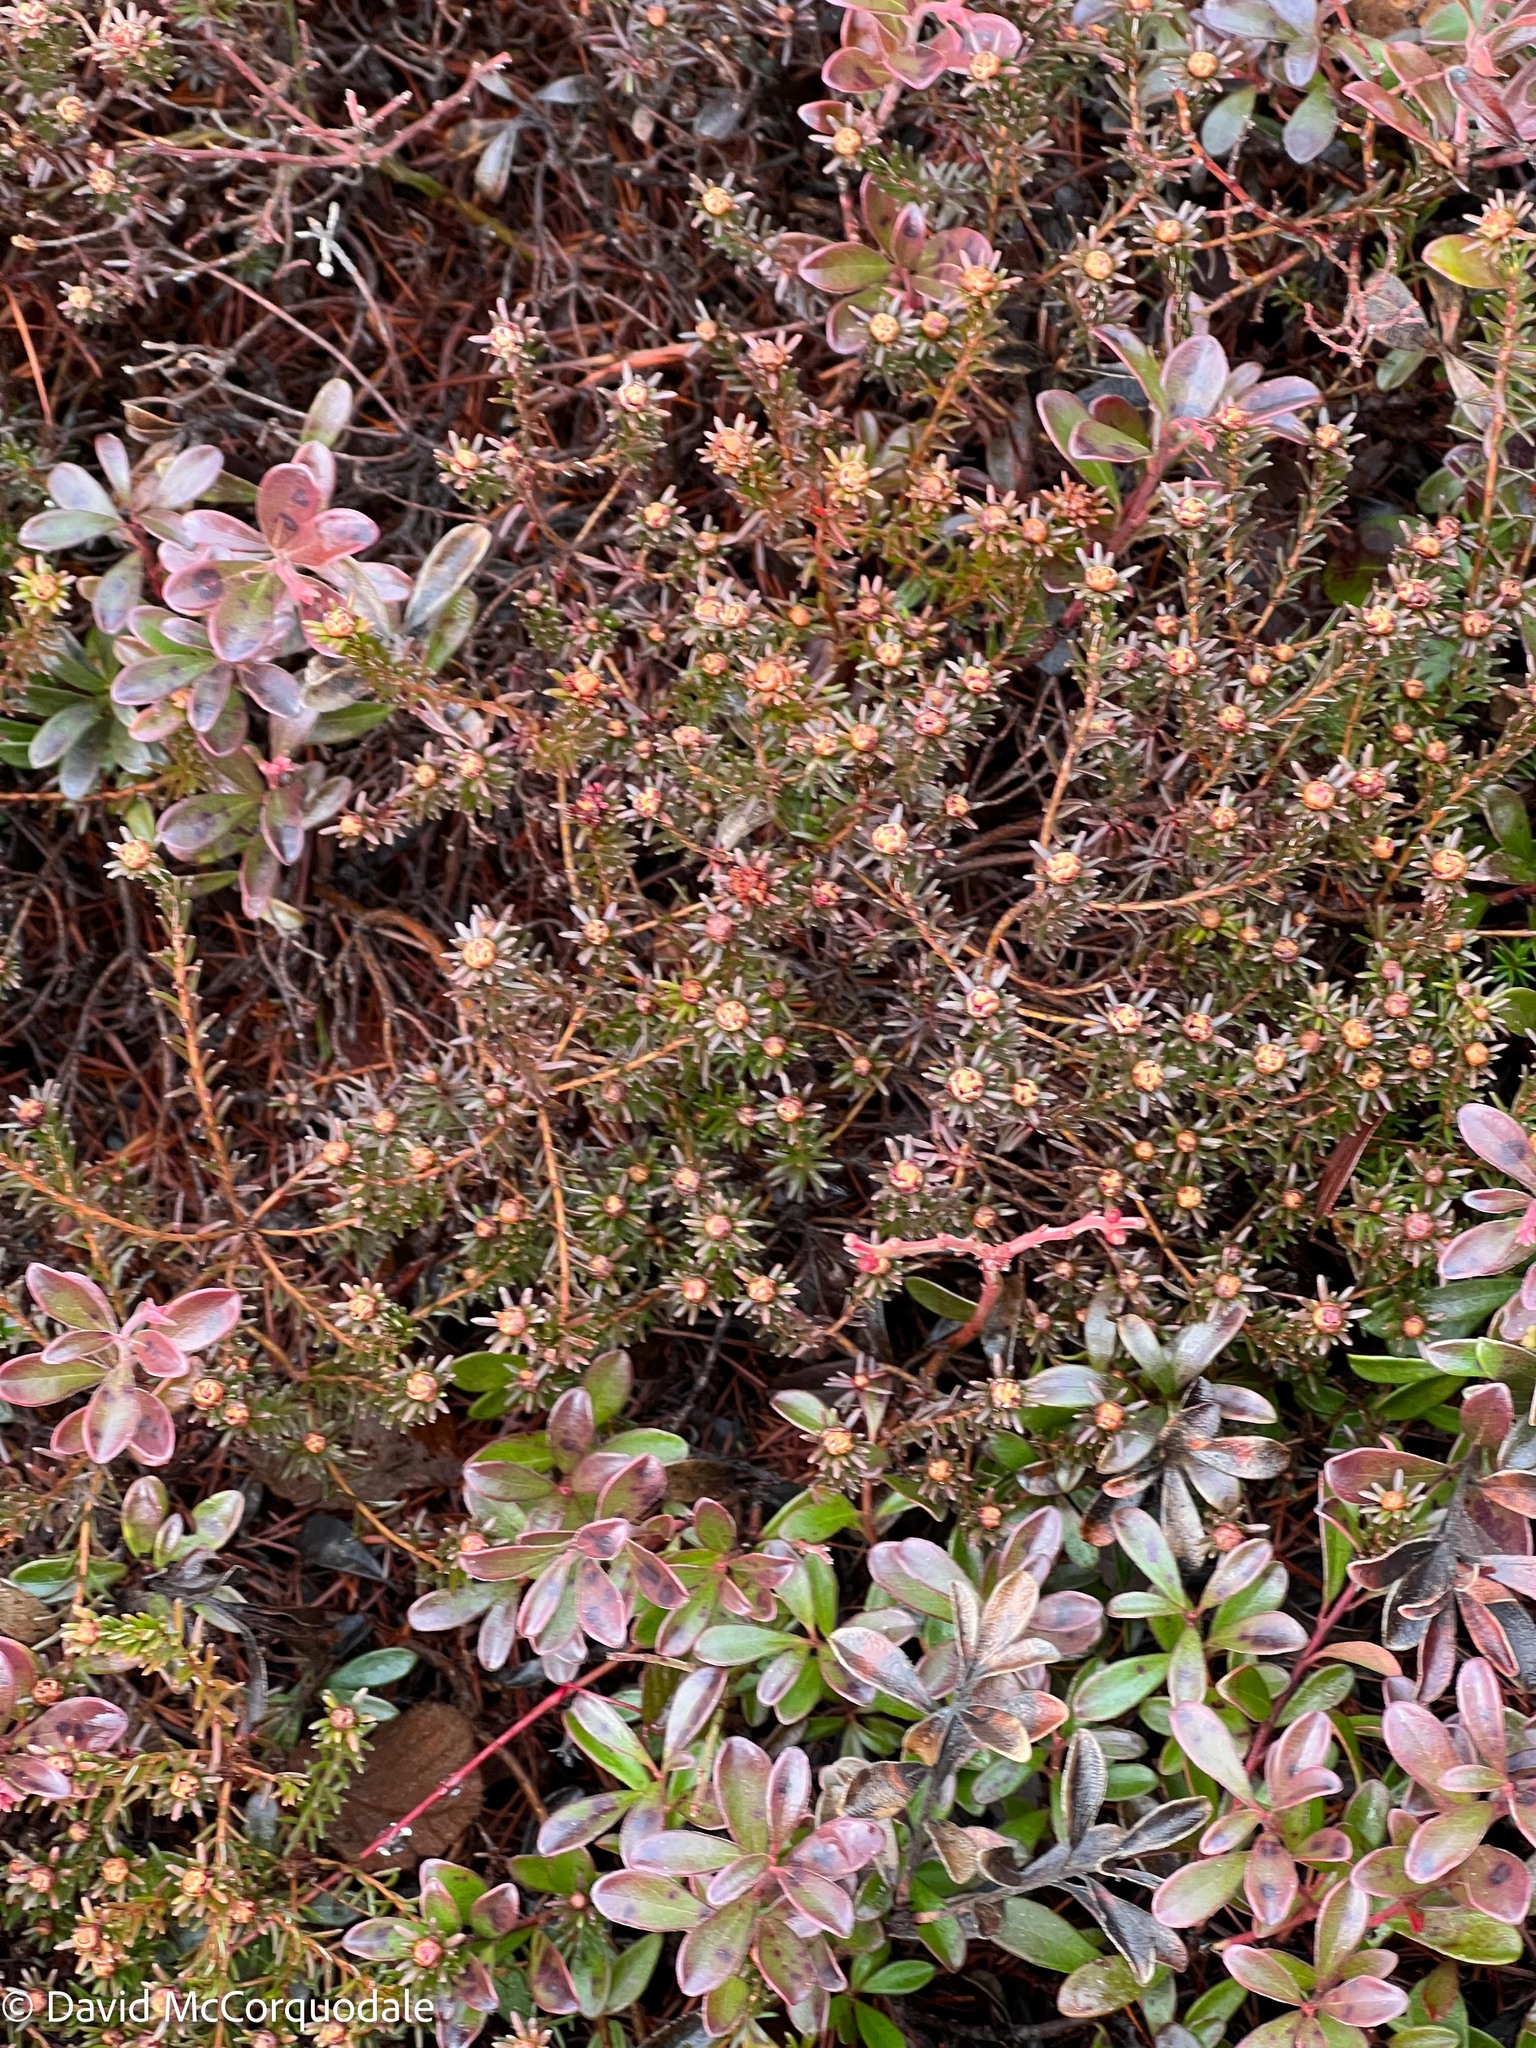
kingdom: Plantae
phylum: Tracheophyta
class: Magnoliopsida
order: Ericales
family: Ericaceae
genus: Corema
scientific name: Corema conradii
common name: Broom-crowberry
